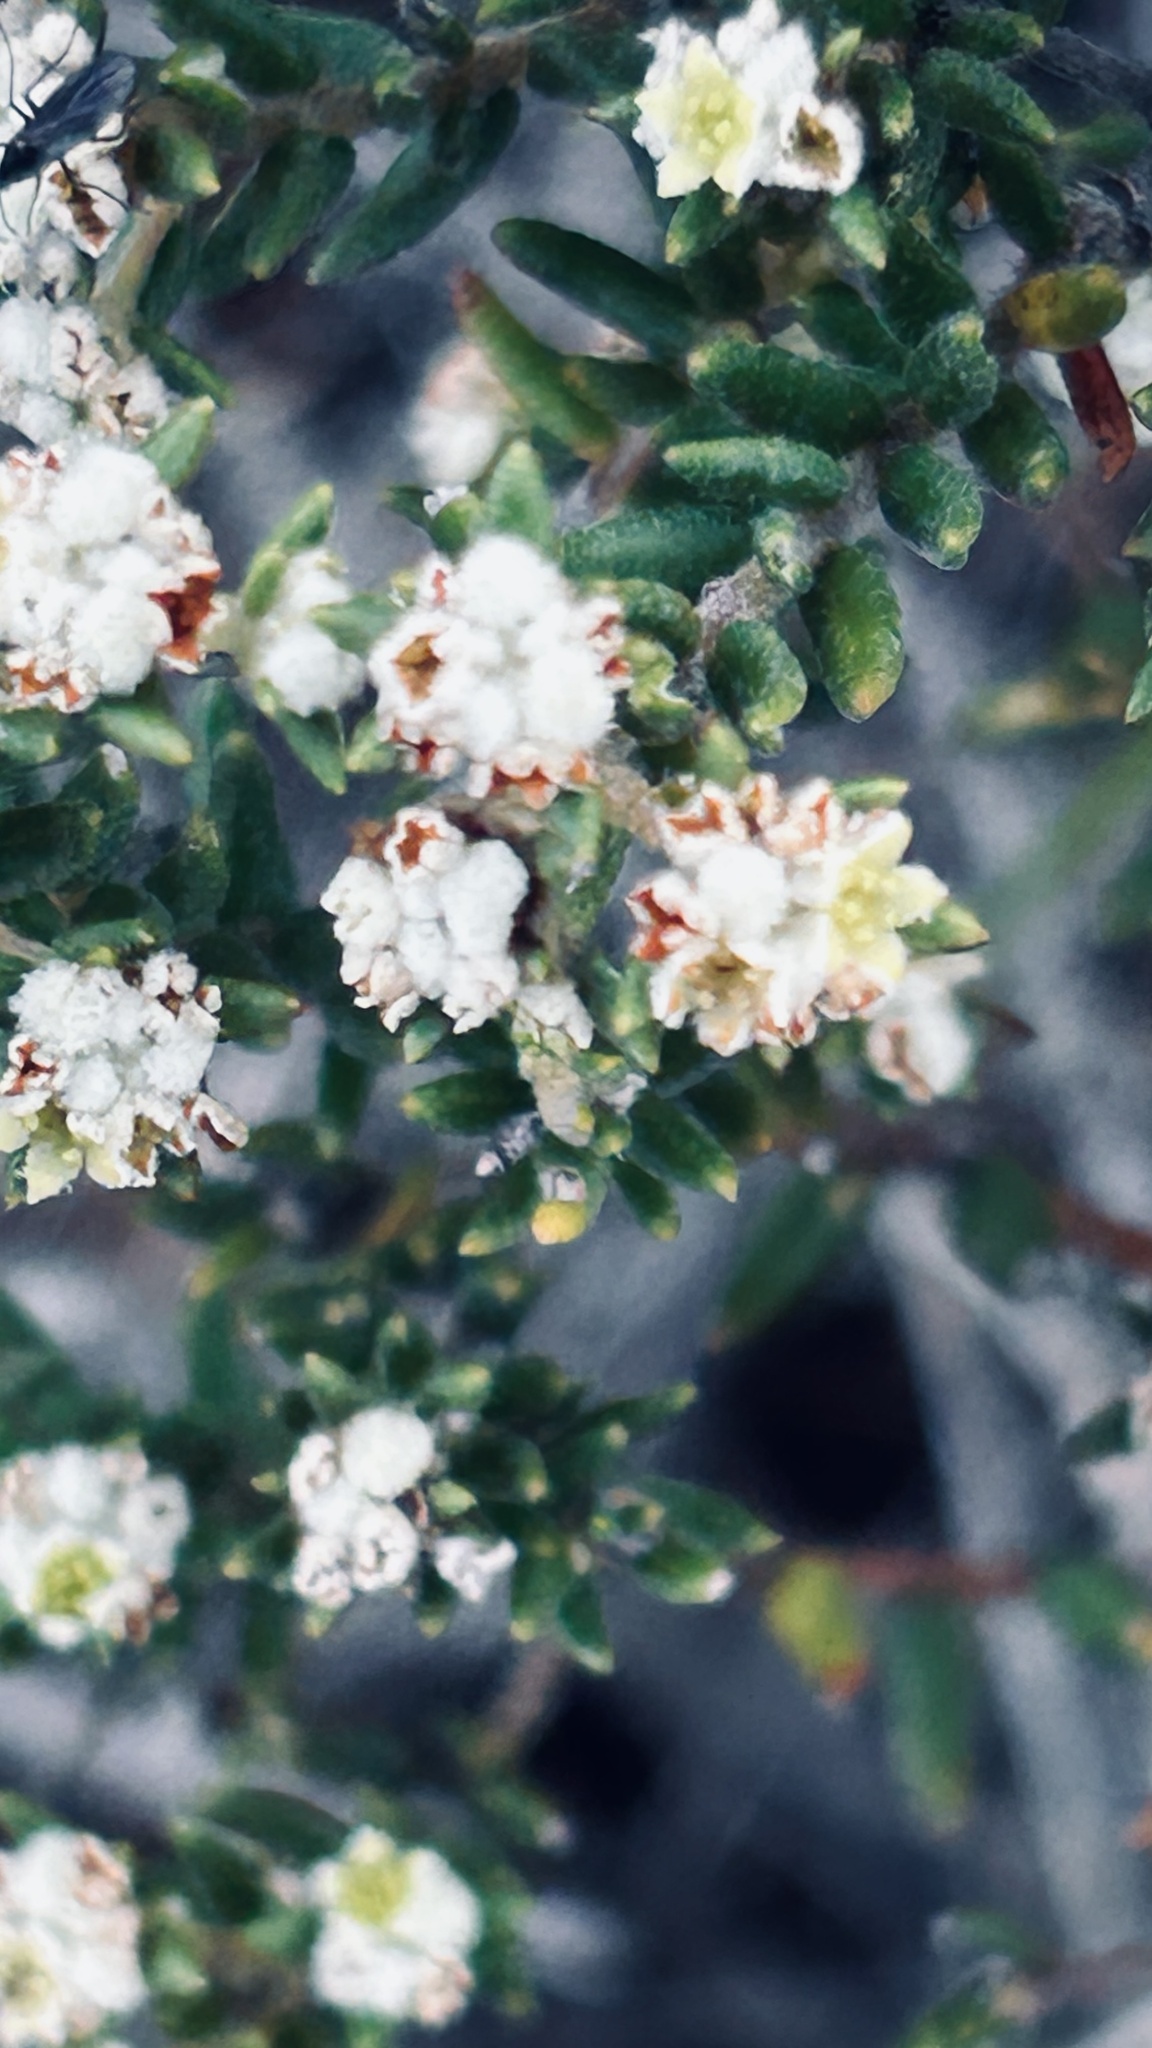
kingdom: Plantae
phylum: Tracheophyta
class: Magnoliopsida
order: Rosales
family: Rhamnaceae
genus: Phylica
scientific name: Phylica purpurea
